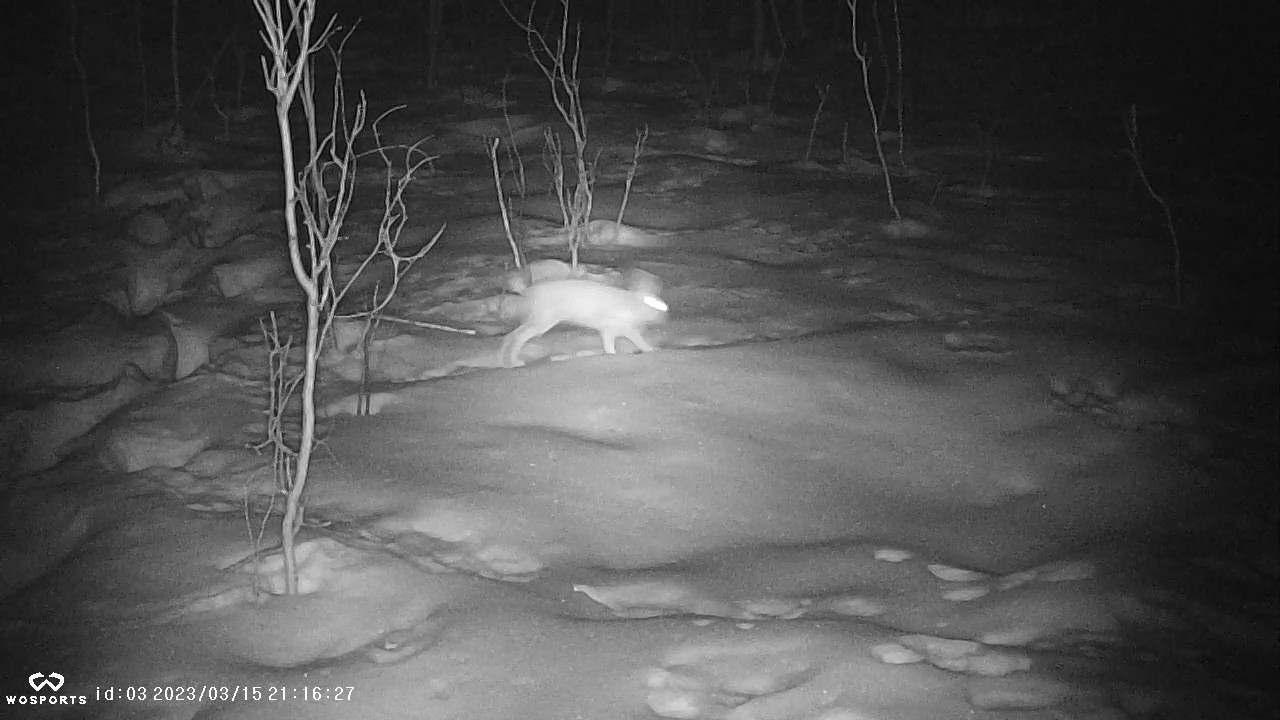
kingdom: Animalia
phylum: Chordata
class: Mammalia
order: Lagomorpha
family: Leporidae
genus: Lepus
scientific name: Lepus americanus
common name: Snowshoe hare
